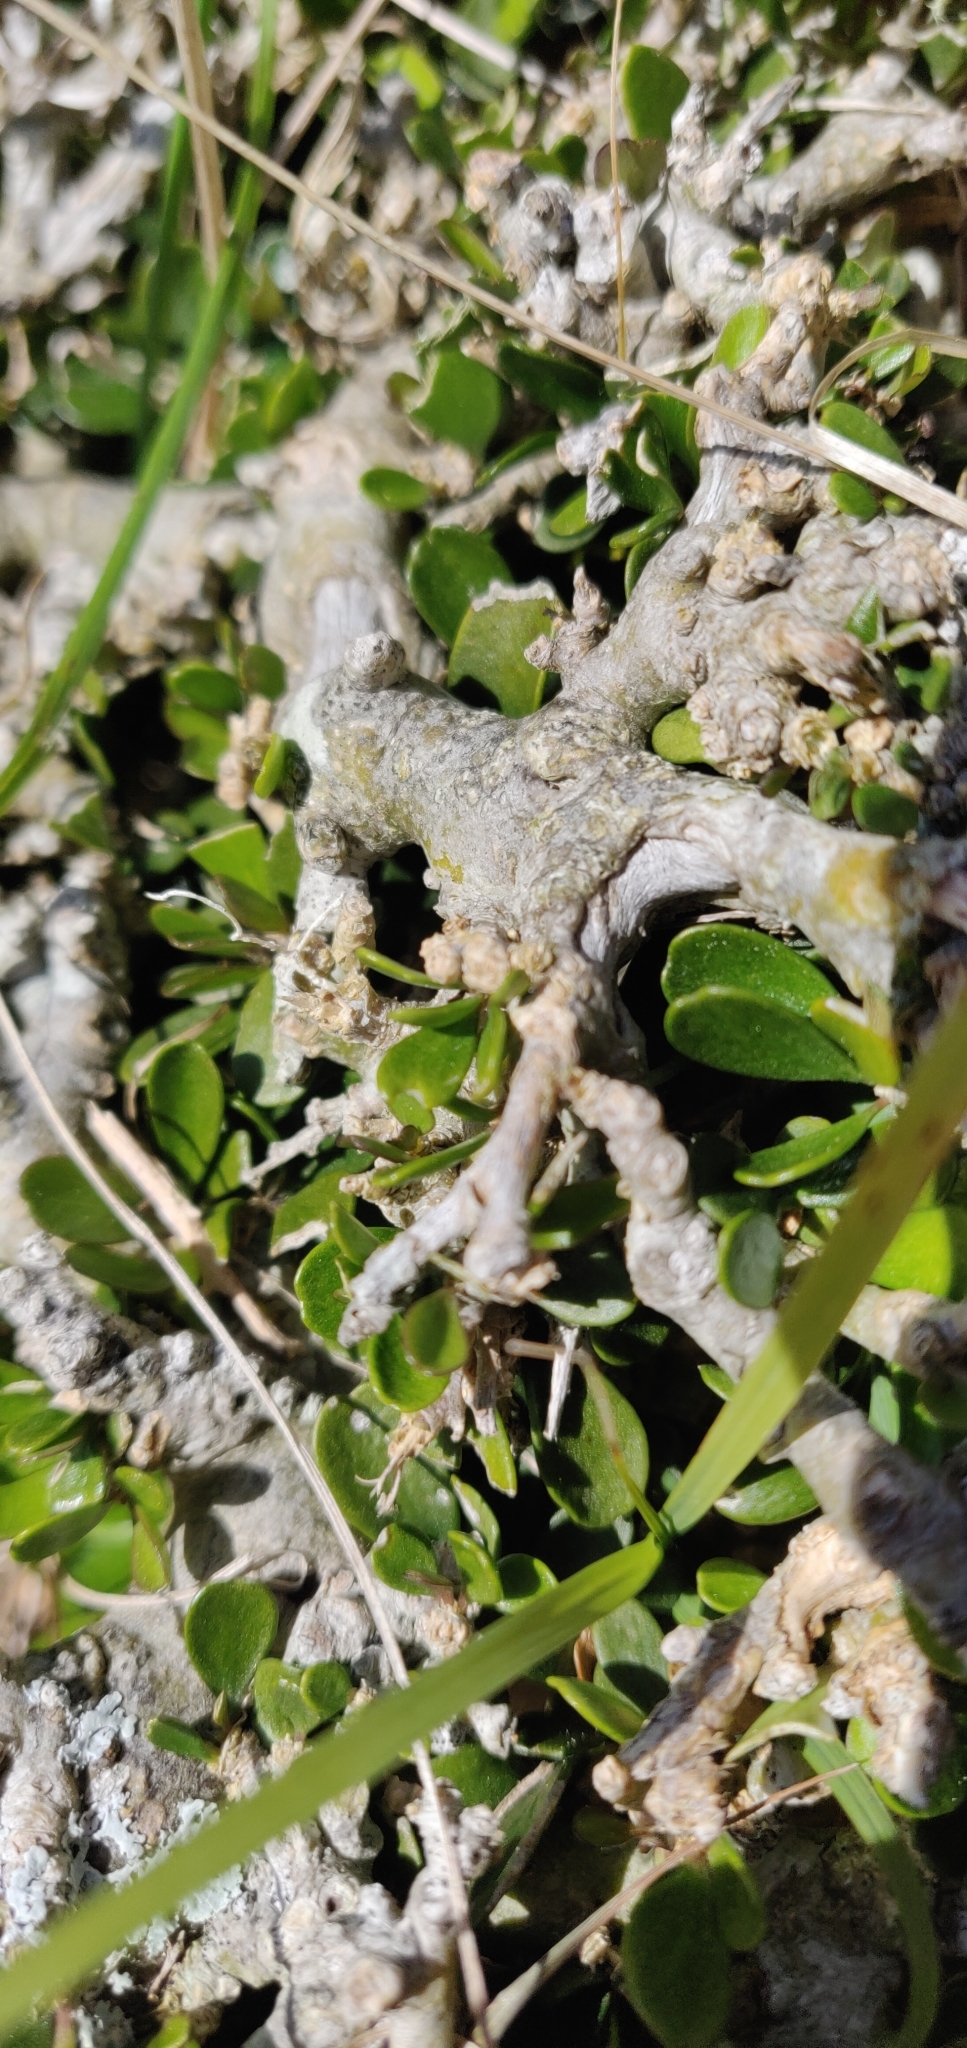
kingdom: Plantae
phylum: Tracheophyta
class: Magnoliopsida
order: Malpighiales
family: Violaceae
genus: Melicytus
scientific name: Melicytus crassifolius
